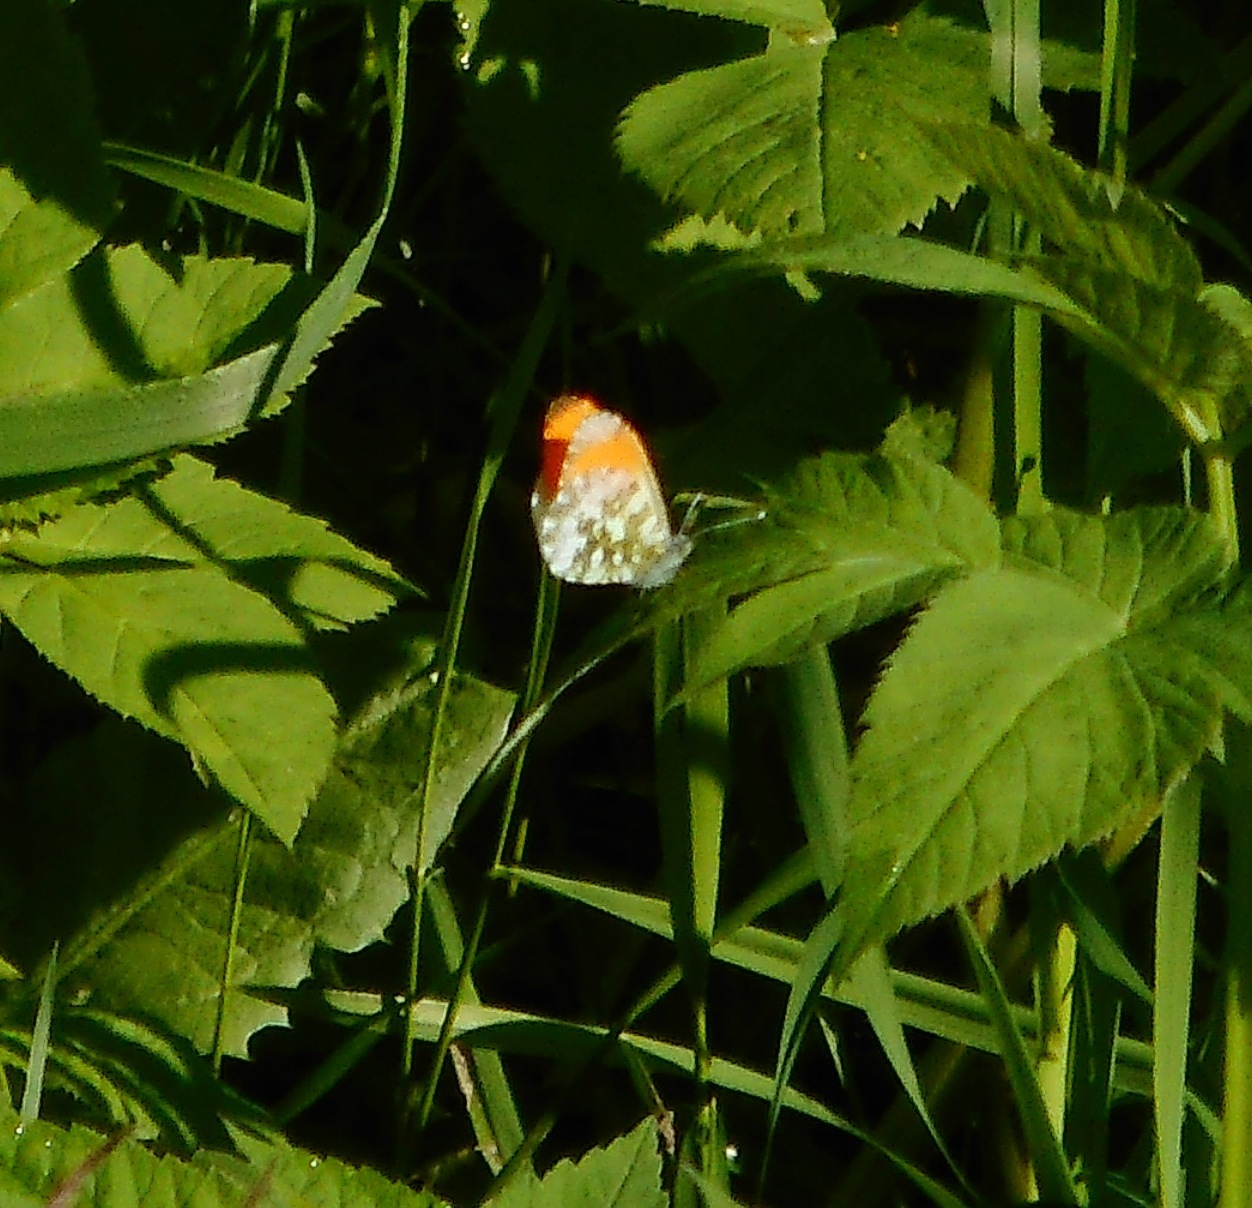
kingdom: Animalia
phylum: Arthropoda
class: Insecta
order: Lepidoptera
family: Pieridae
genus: Anthocharis
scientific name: Anthocharis cardamines
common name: Orange-tip
